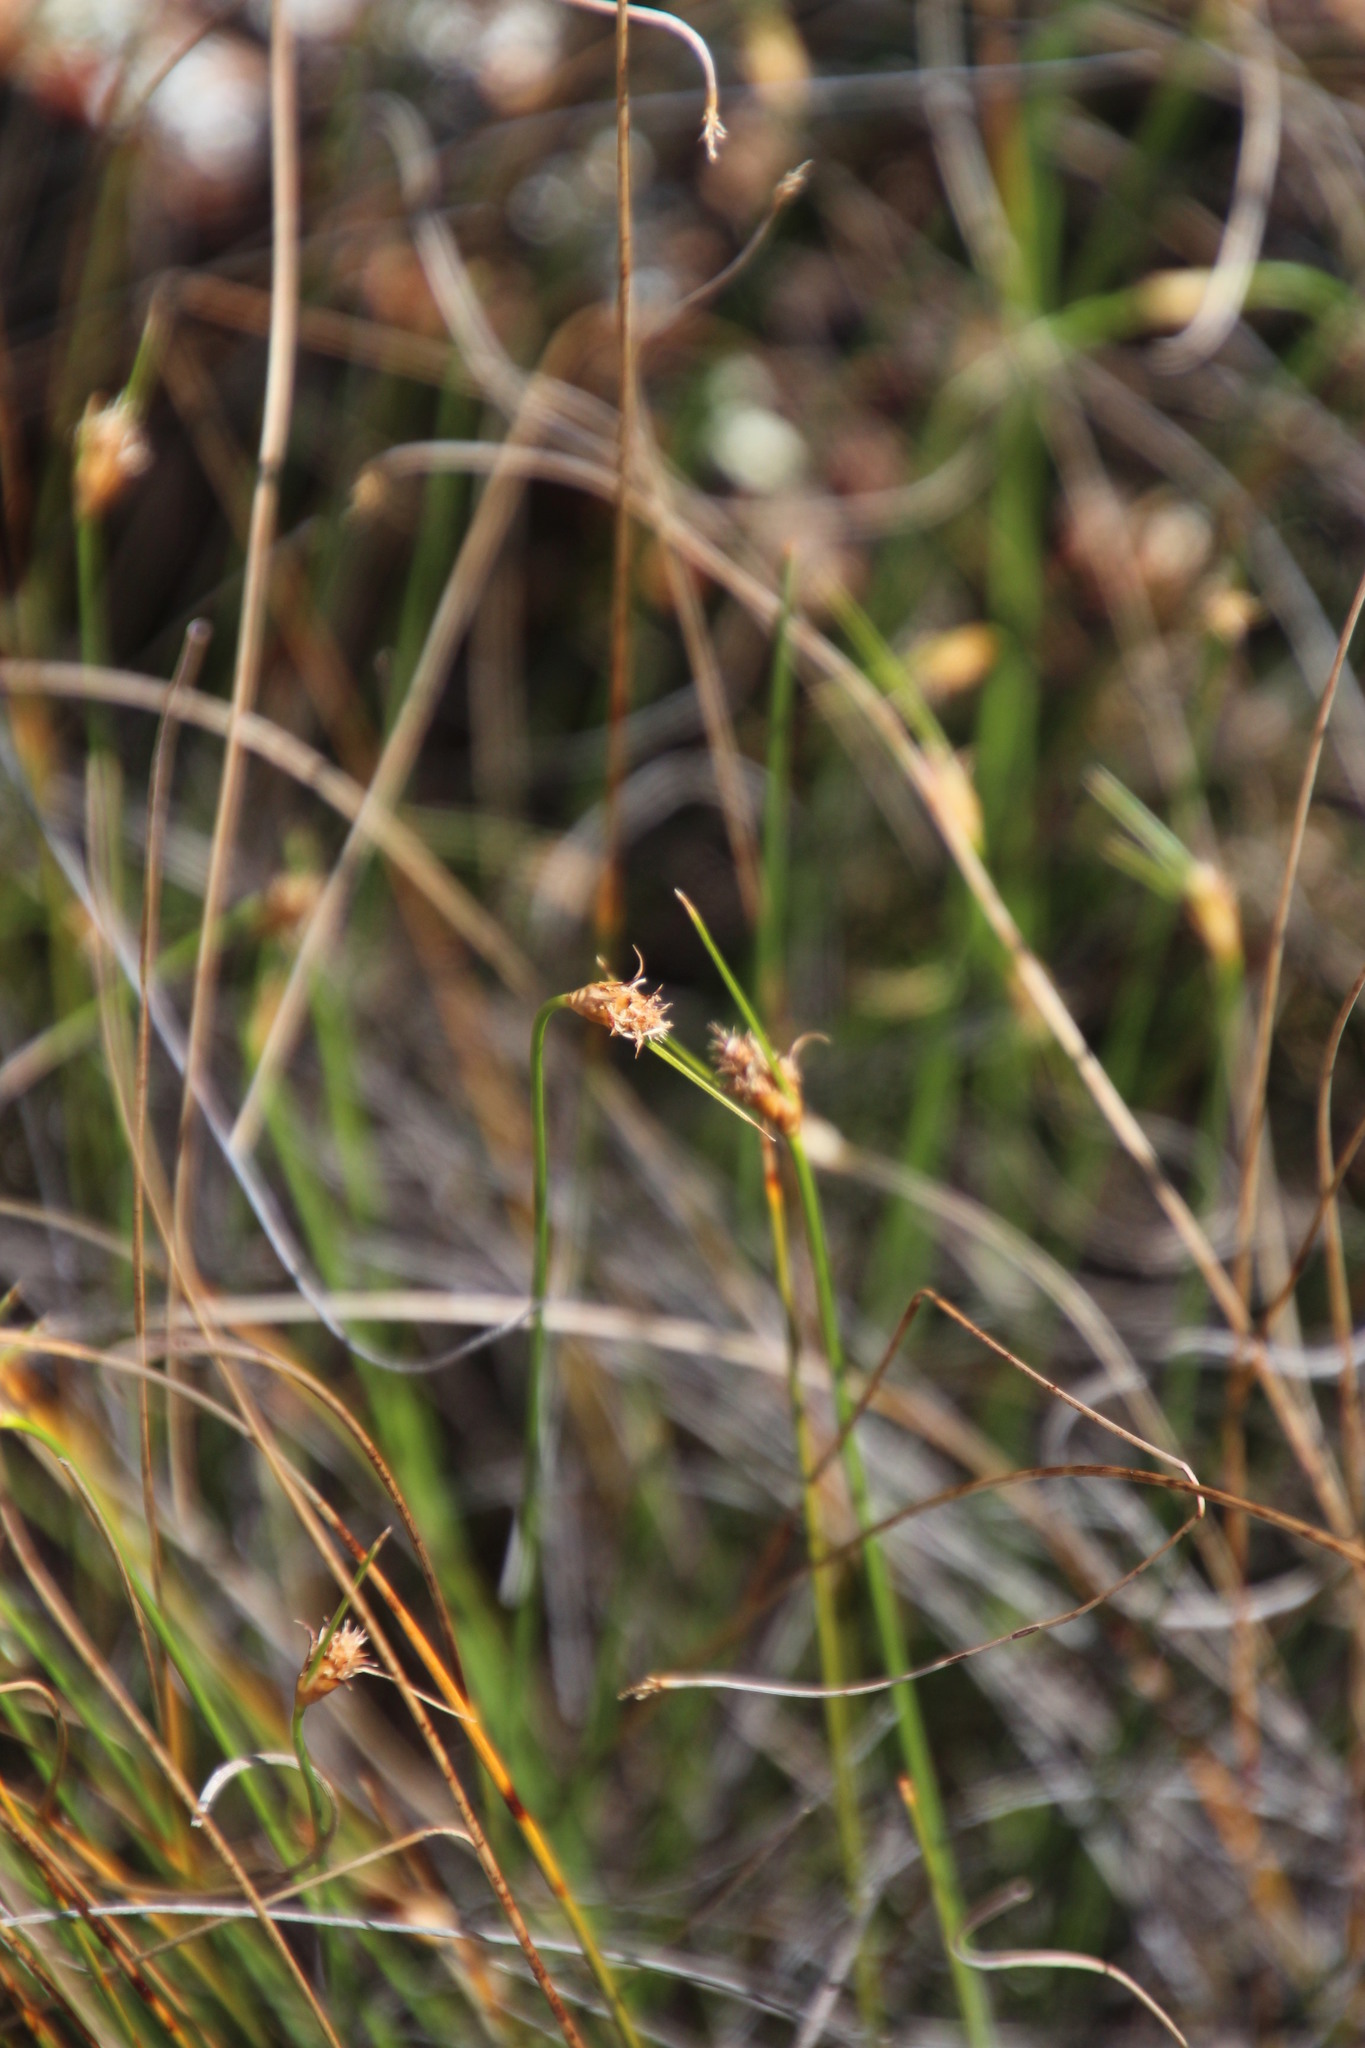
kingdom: Plantae
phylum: Tracheophyta
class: Liliopsida
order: Poales
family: Cyperaceae
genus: Ficinia
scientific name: Ficinia nigrescens
